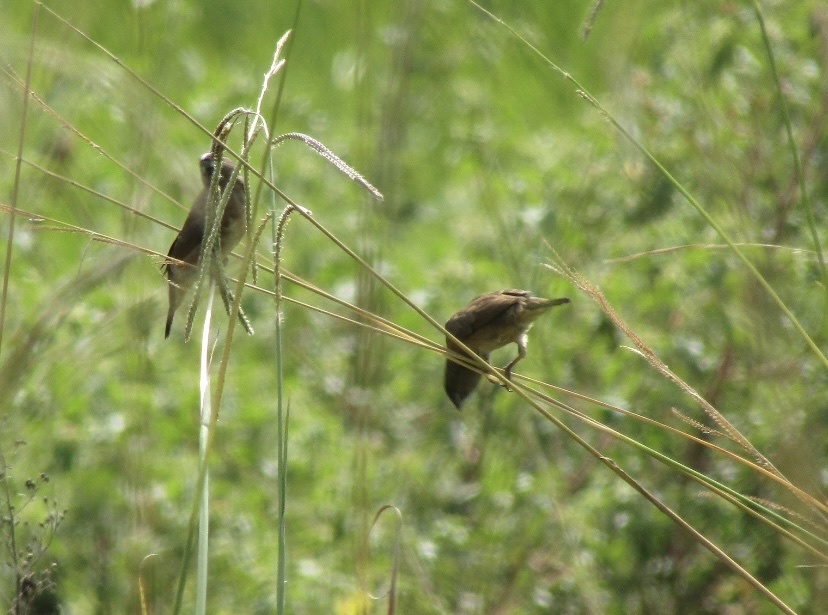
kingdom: Animalia
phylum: Chordata
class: Aves
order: Passeriformes
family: Estrildidae
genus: Lonchura
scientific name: Lonchura cucullata
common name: Bronze mannikin
